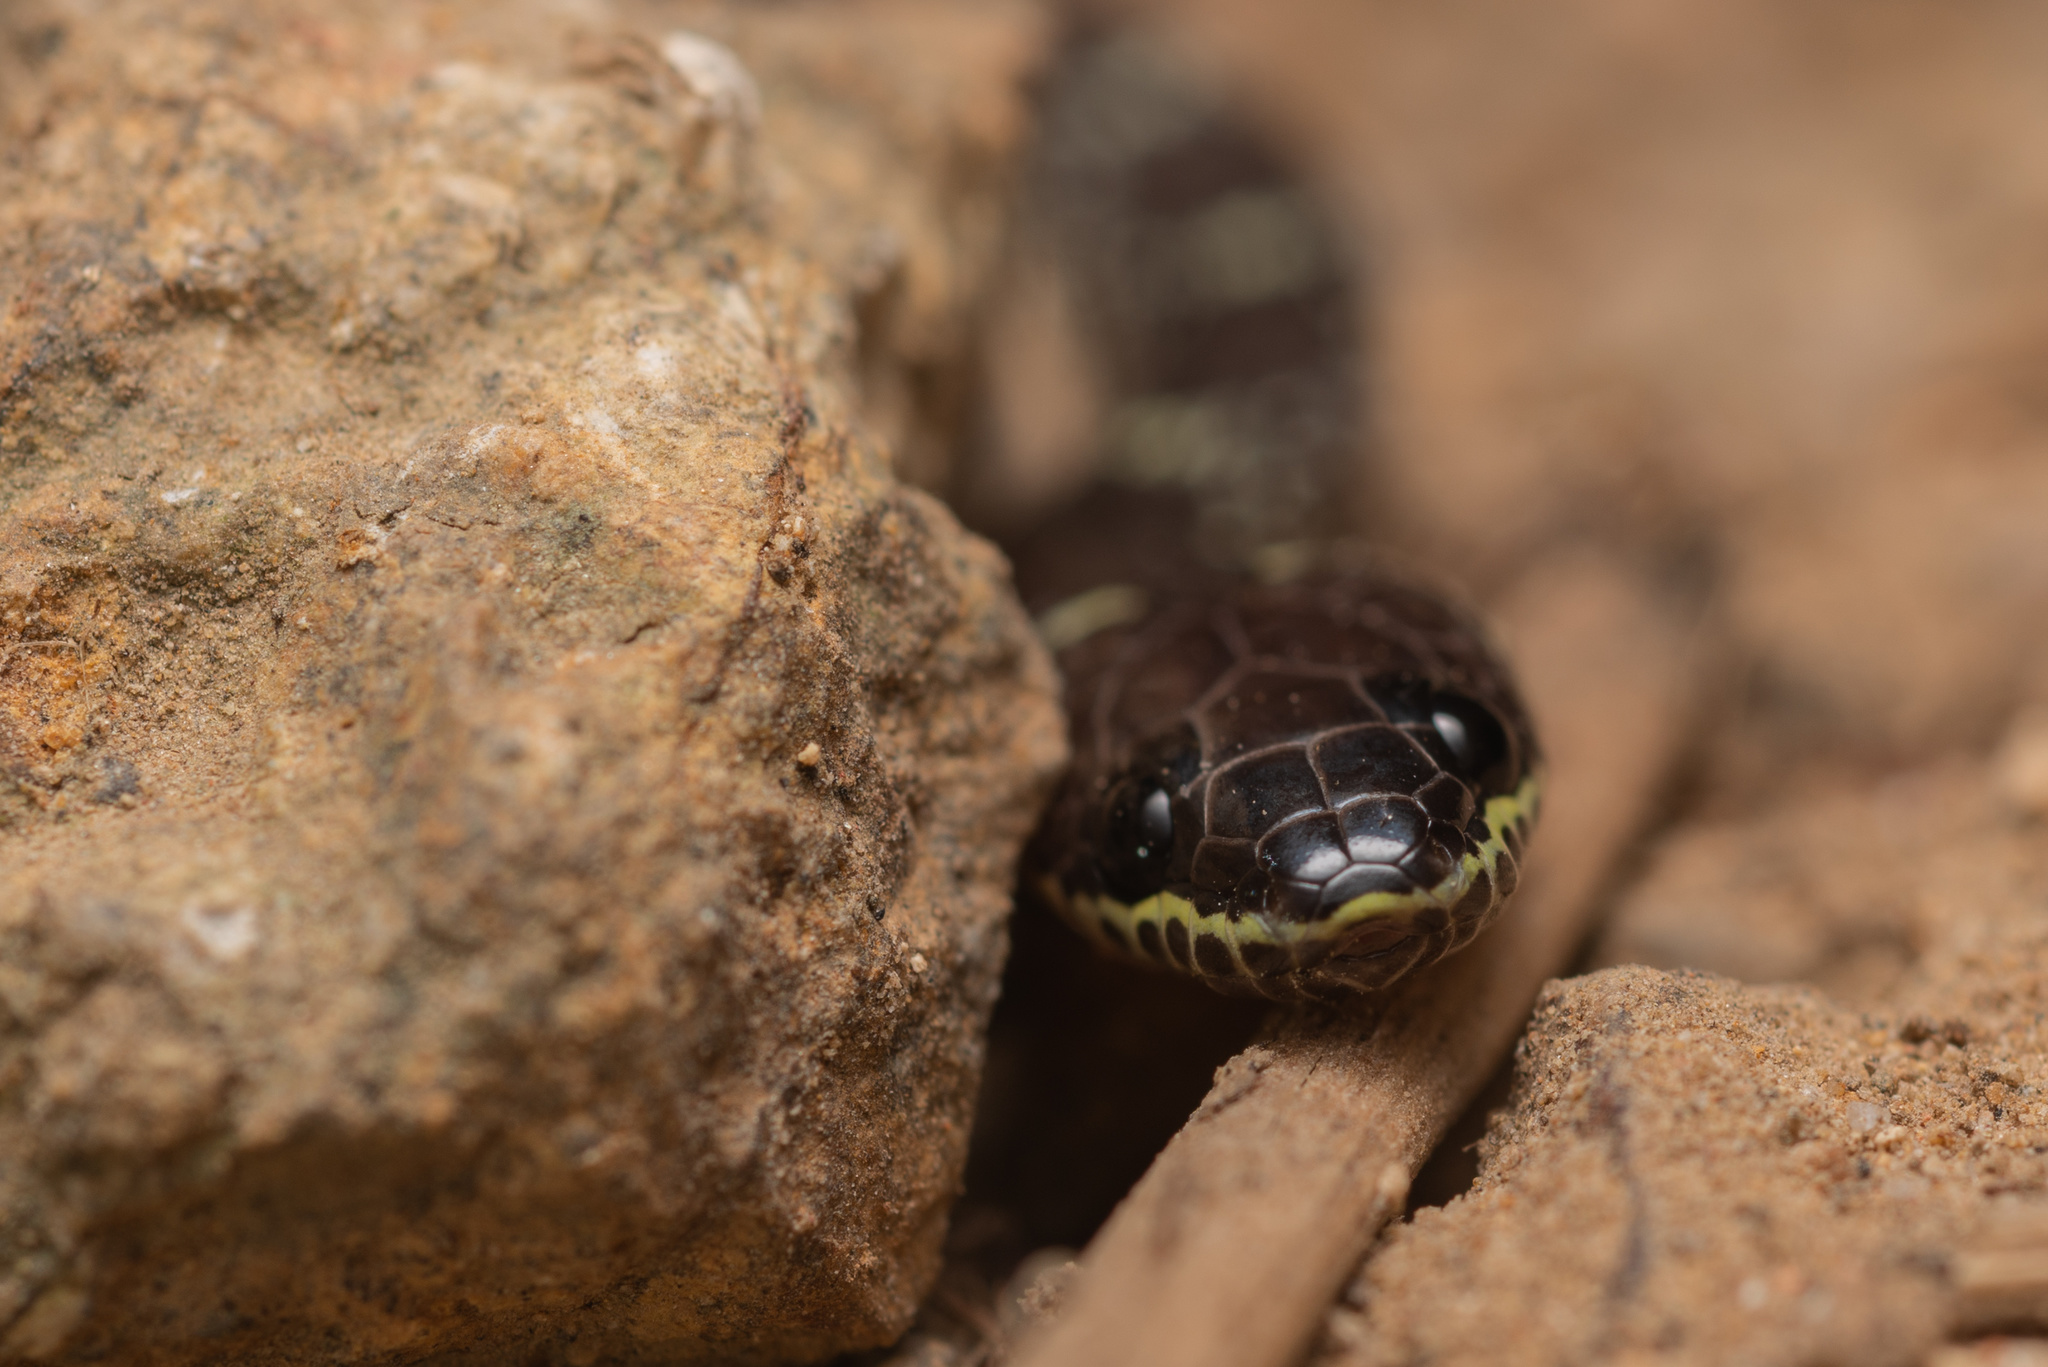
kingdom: Animalia
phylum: Chordata
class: Squamata
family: Colubridae
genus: Lycodon
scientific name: Lycodon capucinus
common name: Common wold snake/house snake
